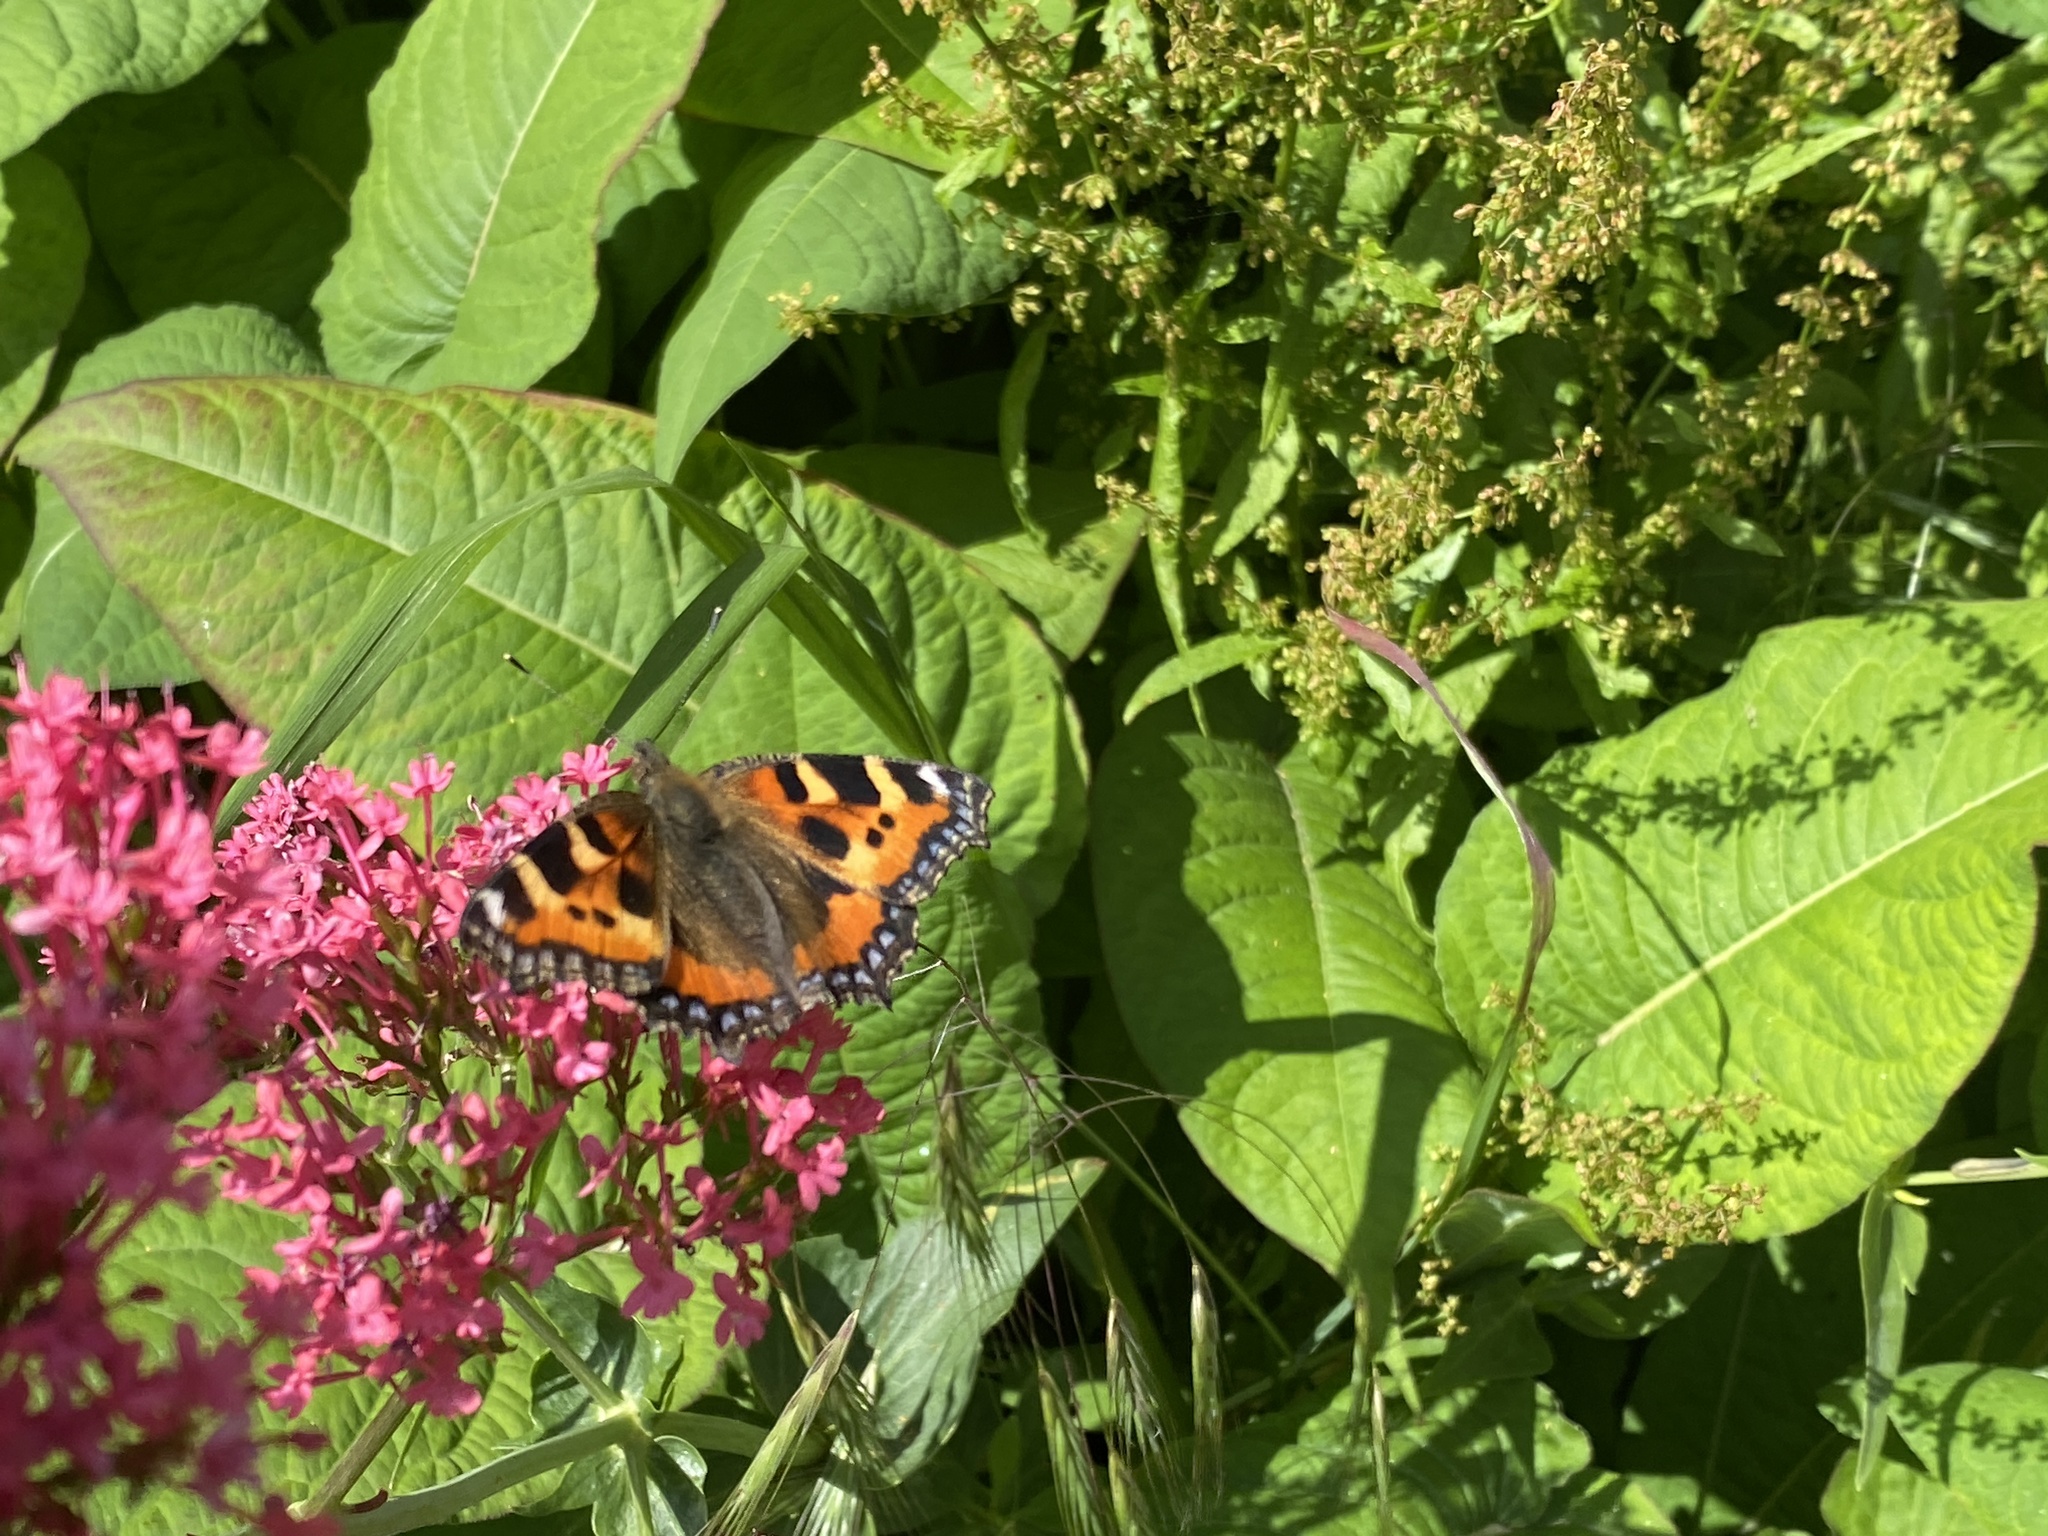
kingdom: Animalia
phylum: Arthropoda
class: Insecta
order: Lepidoptera
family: Nymphalidae
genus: Aglais
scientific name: Aglais urticae
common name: Small tortoiseshell
